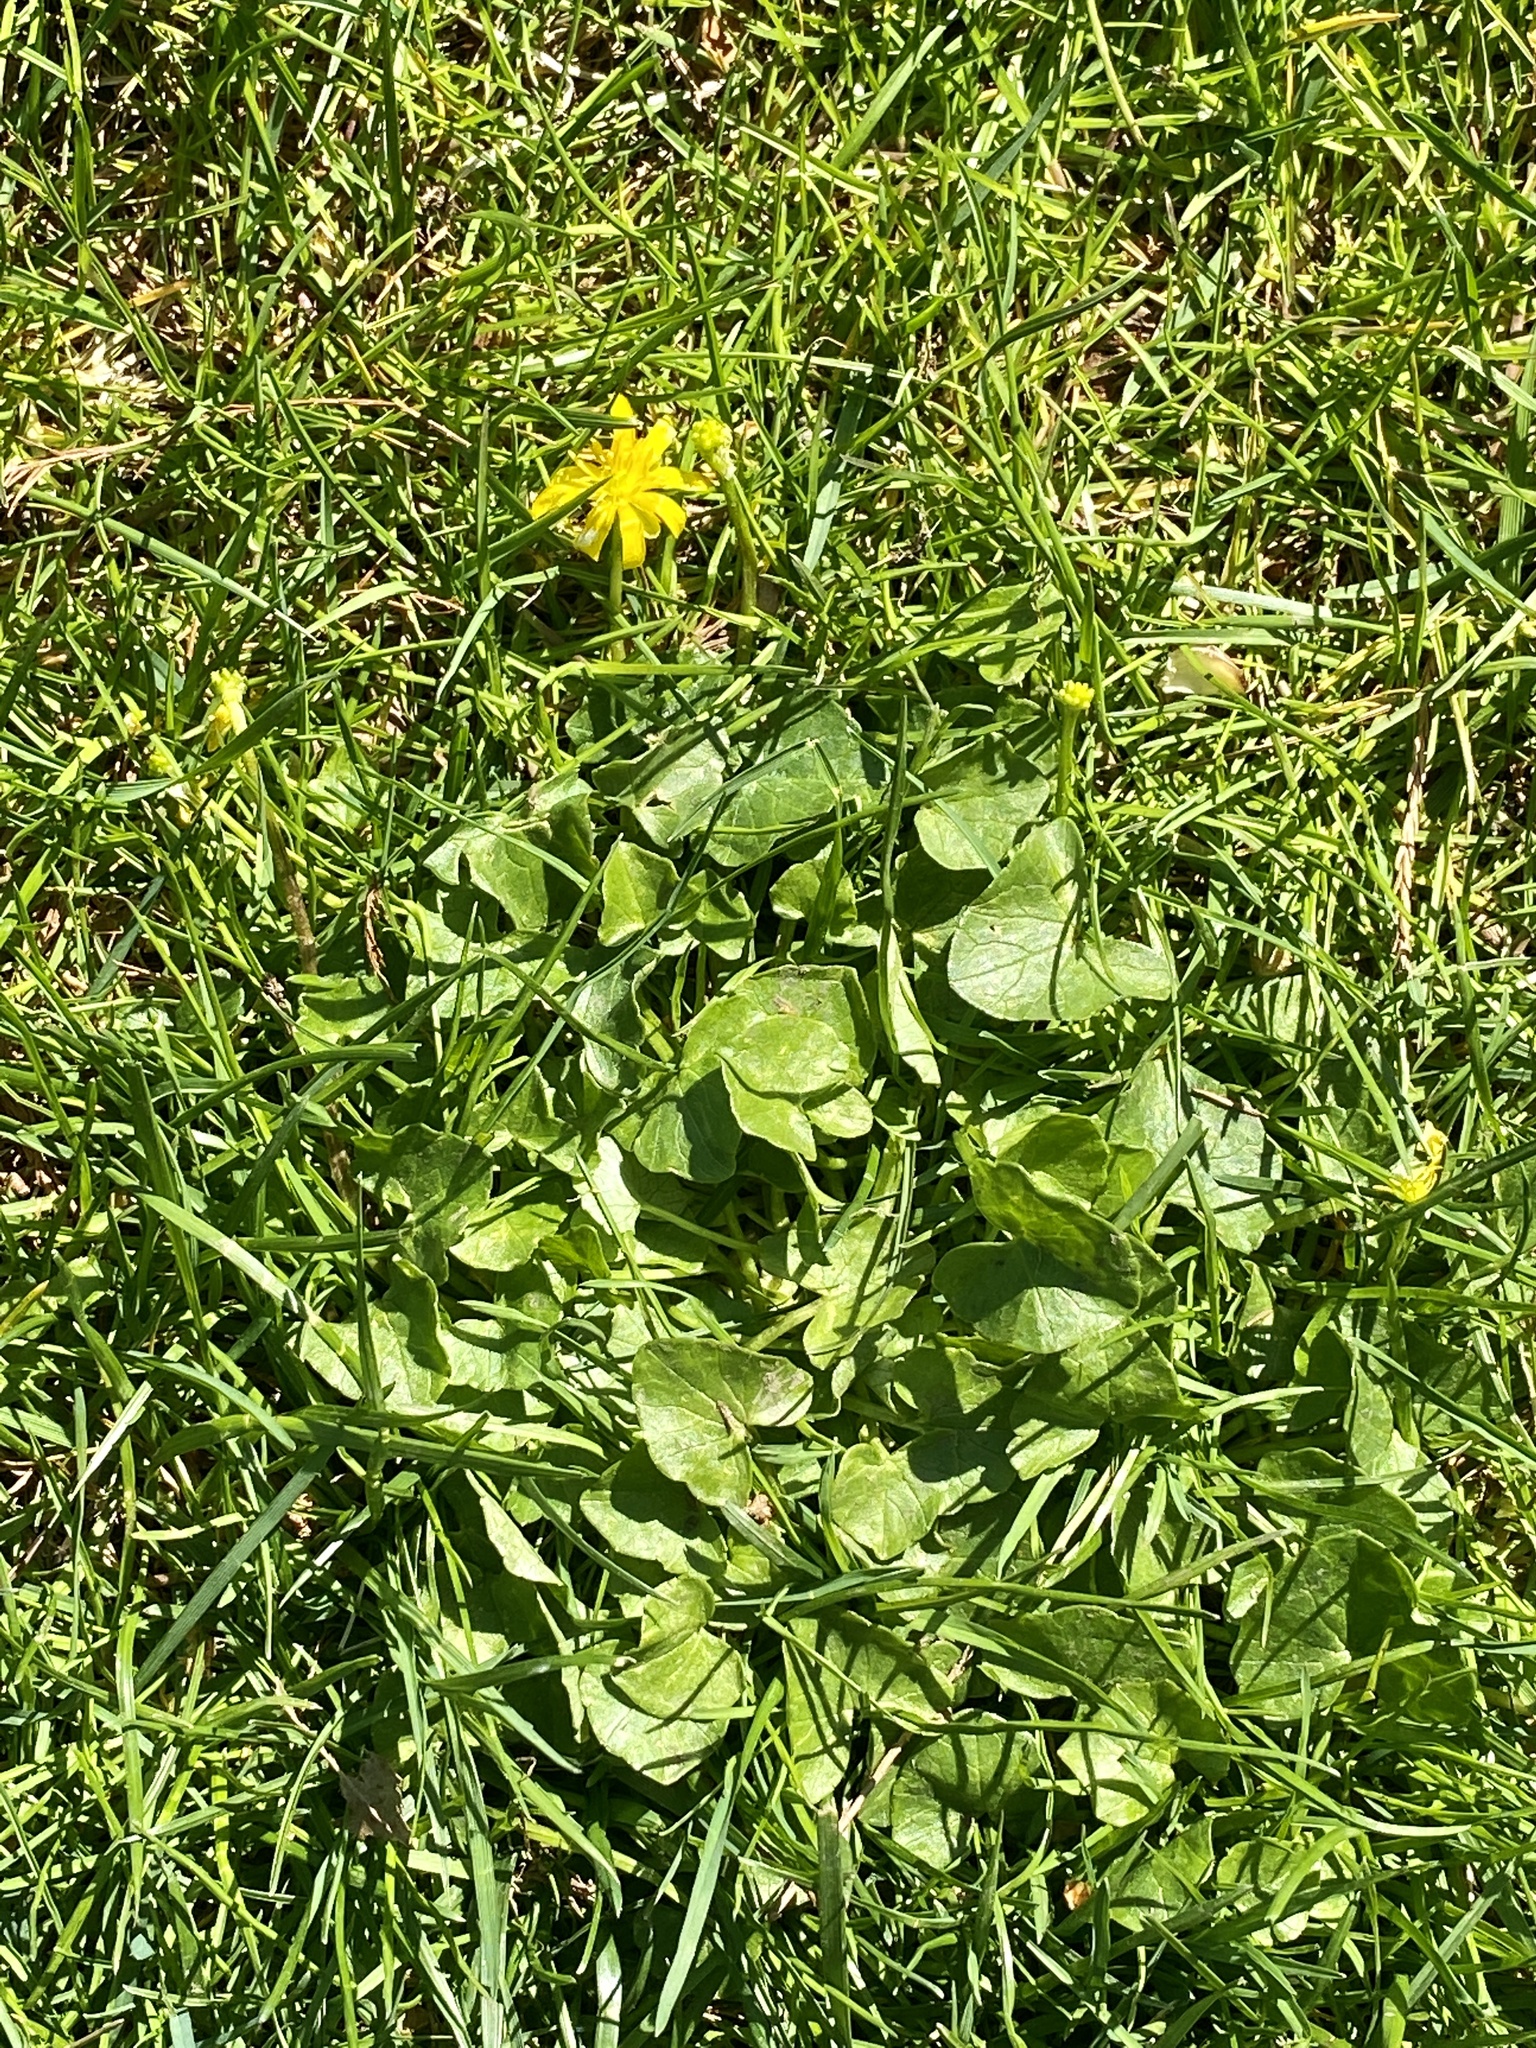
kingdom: Plantae
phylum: Tracheophyta
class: Magnoliopsida
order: Ranunculales
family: Ranunculaceae
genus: Ficaria
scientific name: Ficaria verna
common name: Lesser celandine
